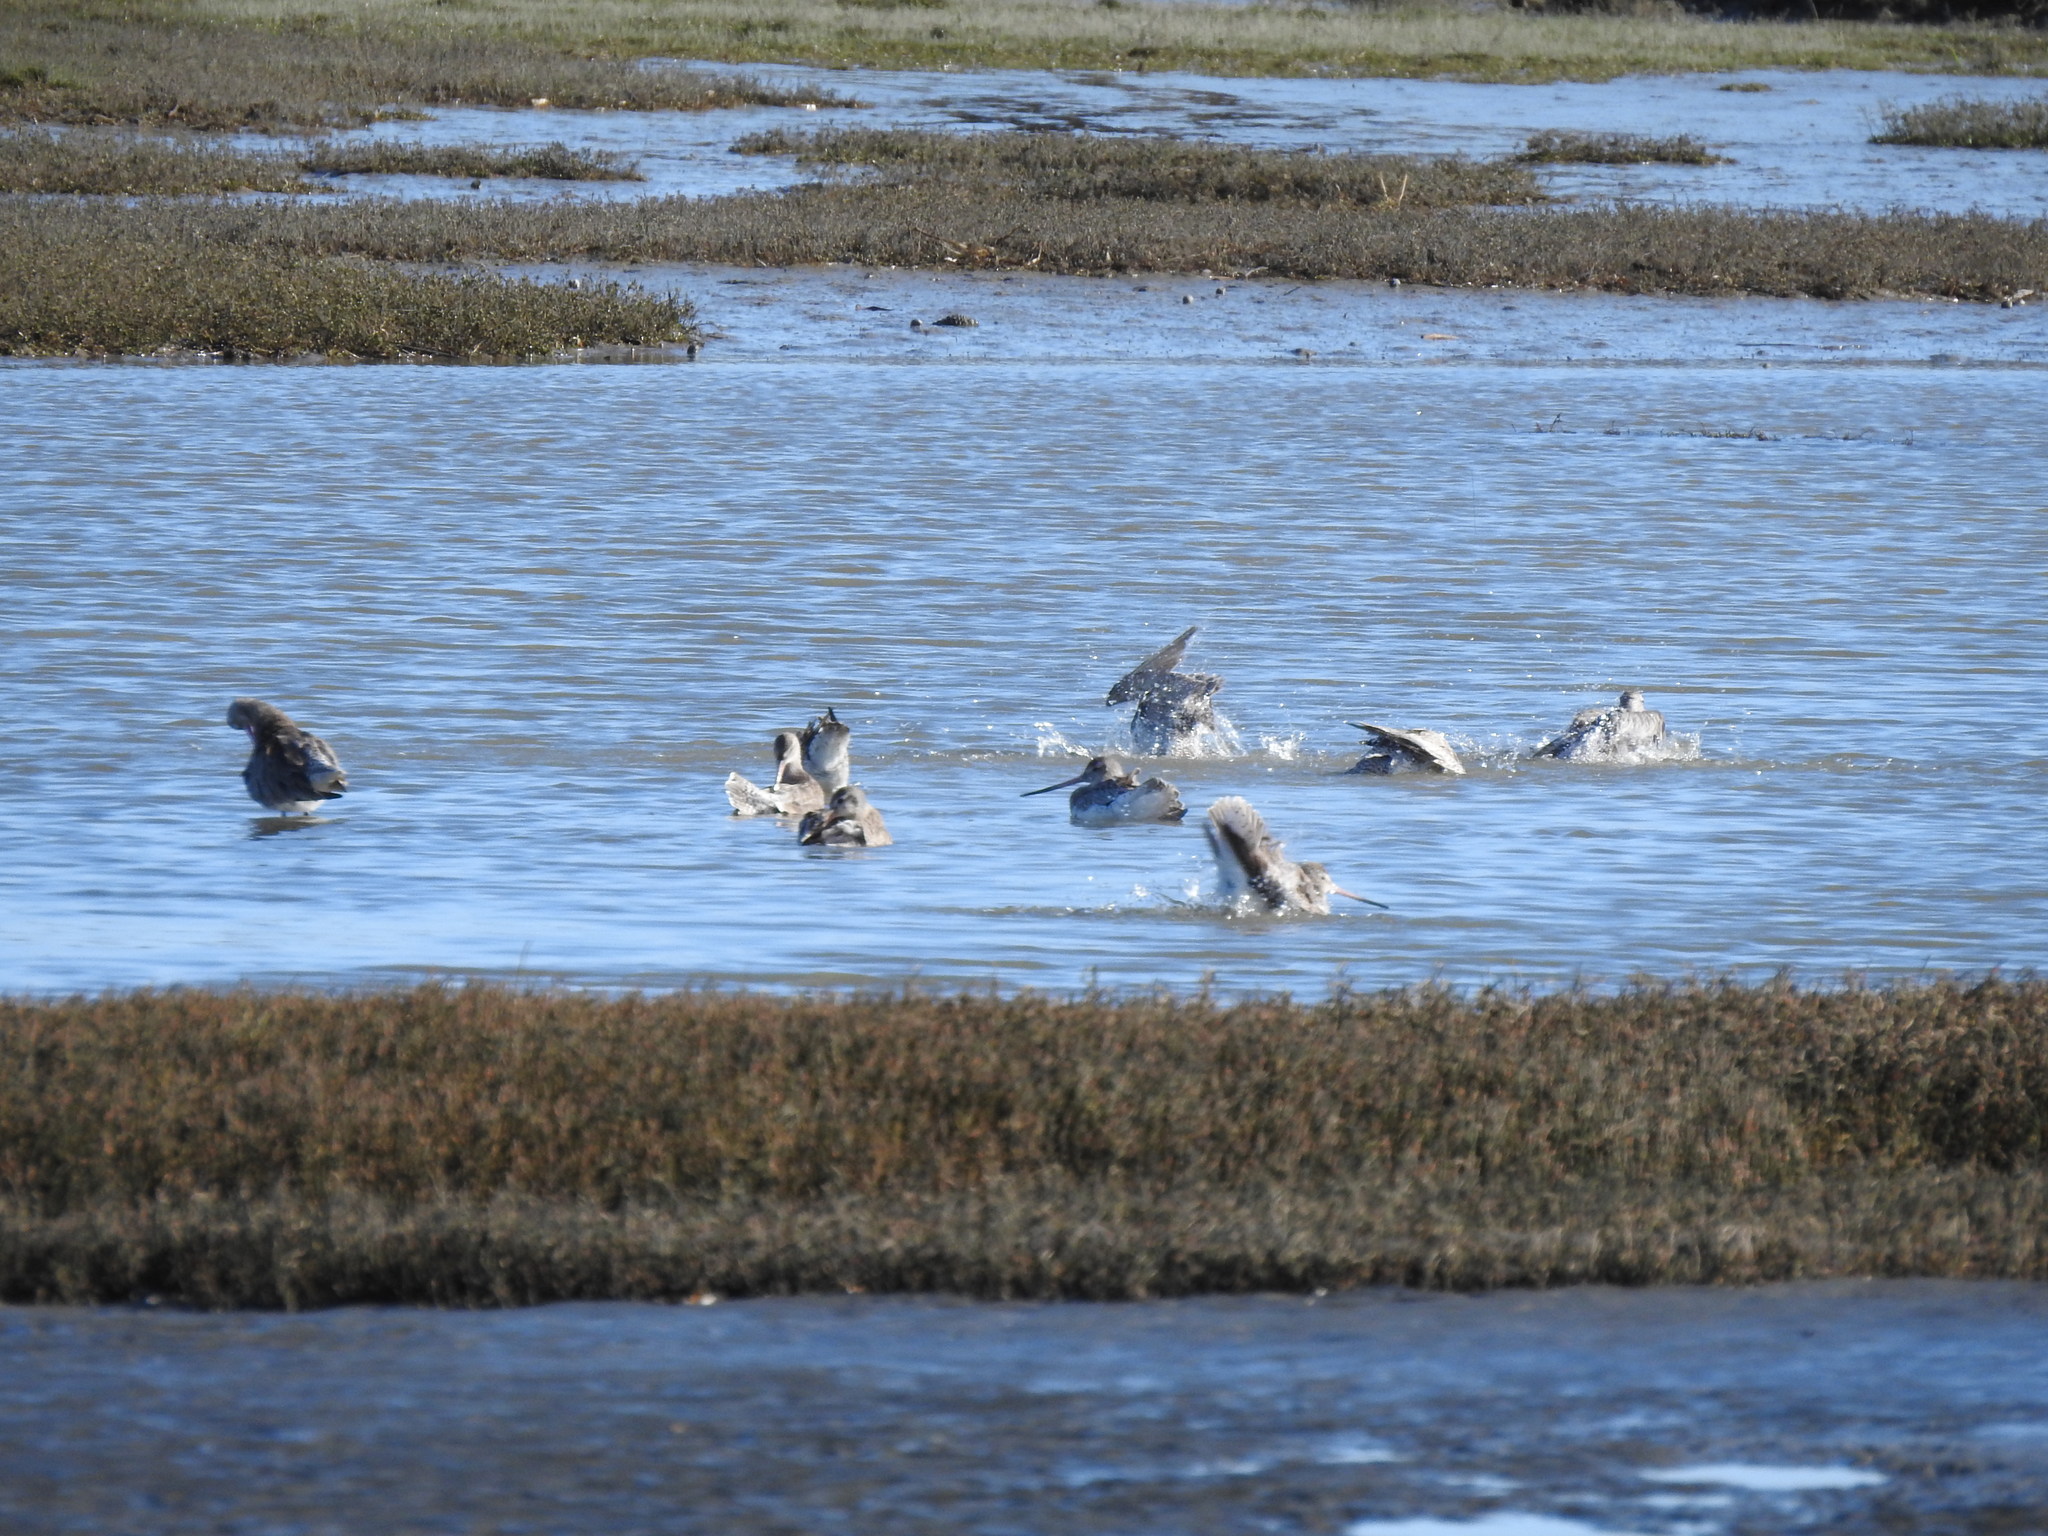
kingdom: Animalia
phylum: Chordata
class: Aves
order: Charadriiformes
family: Scolopacidae
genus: Limosa
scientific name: Limosa lapponica
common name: Bar-tailed godwit
